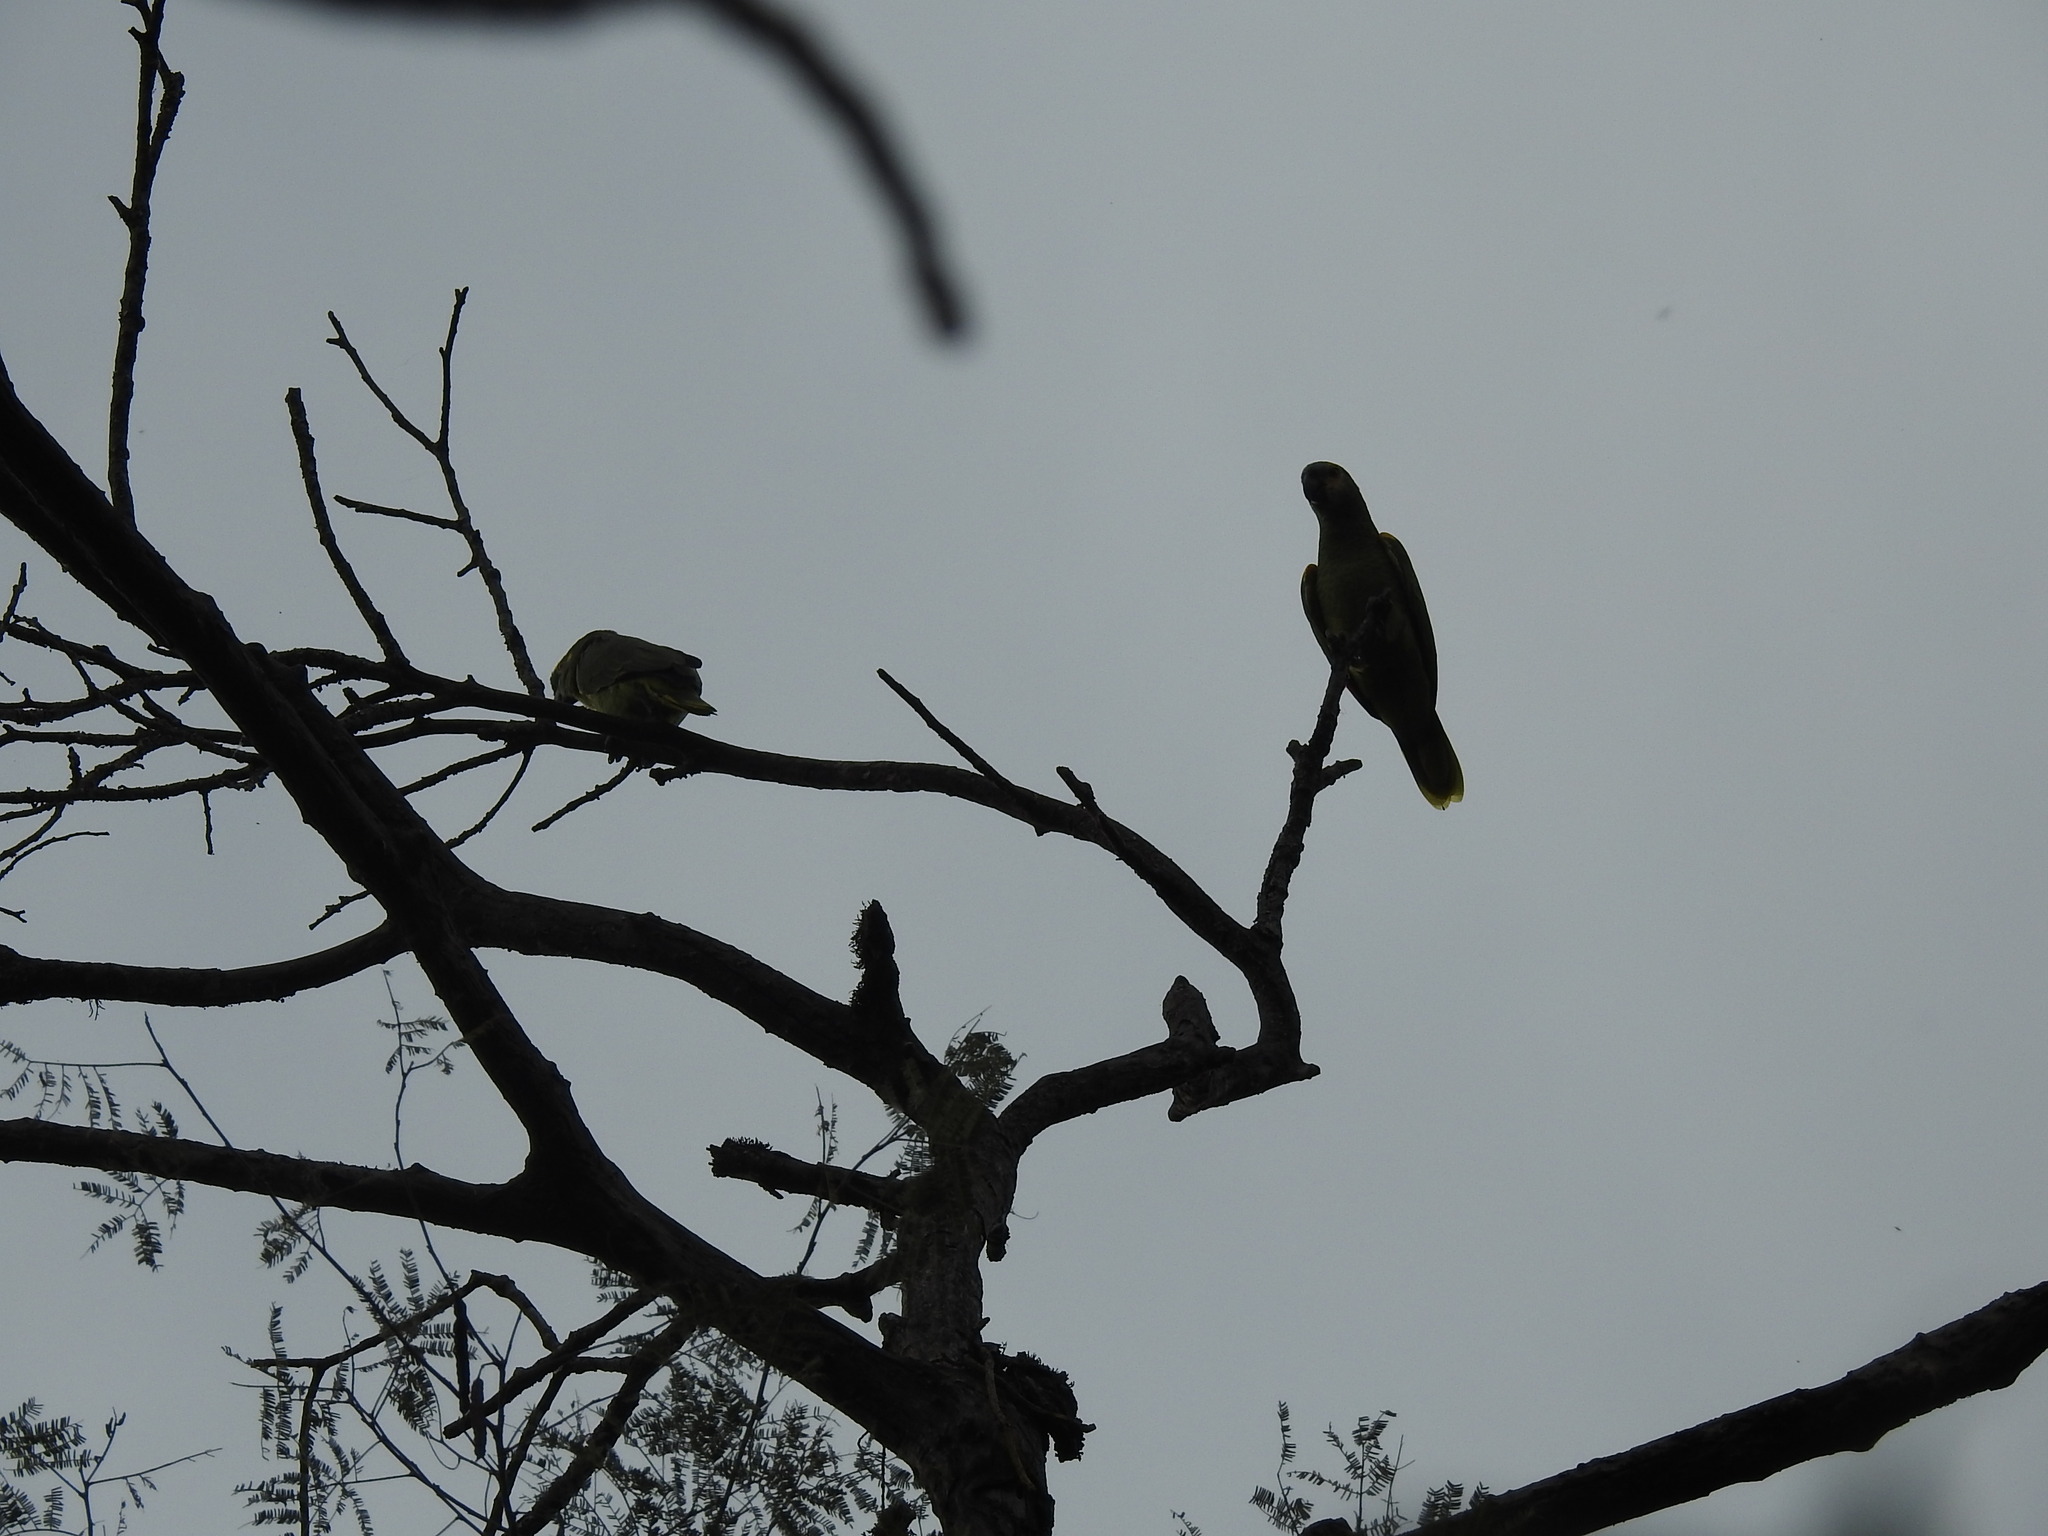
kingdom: Animalia
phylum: Chordata
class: Aves
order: Psittaciformes
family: Psittacidae
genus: Amazona
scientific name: Amazona aestiva
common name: Turquoise-fronted amazon
